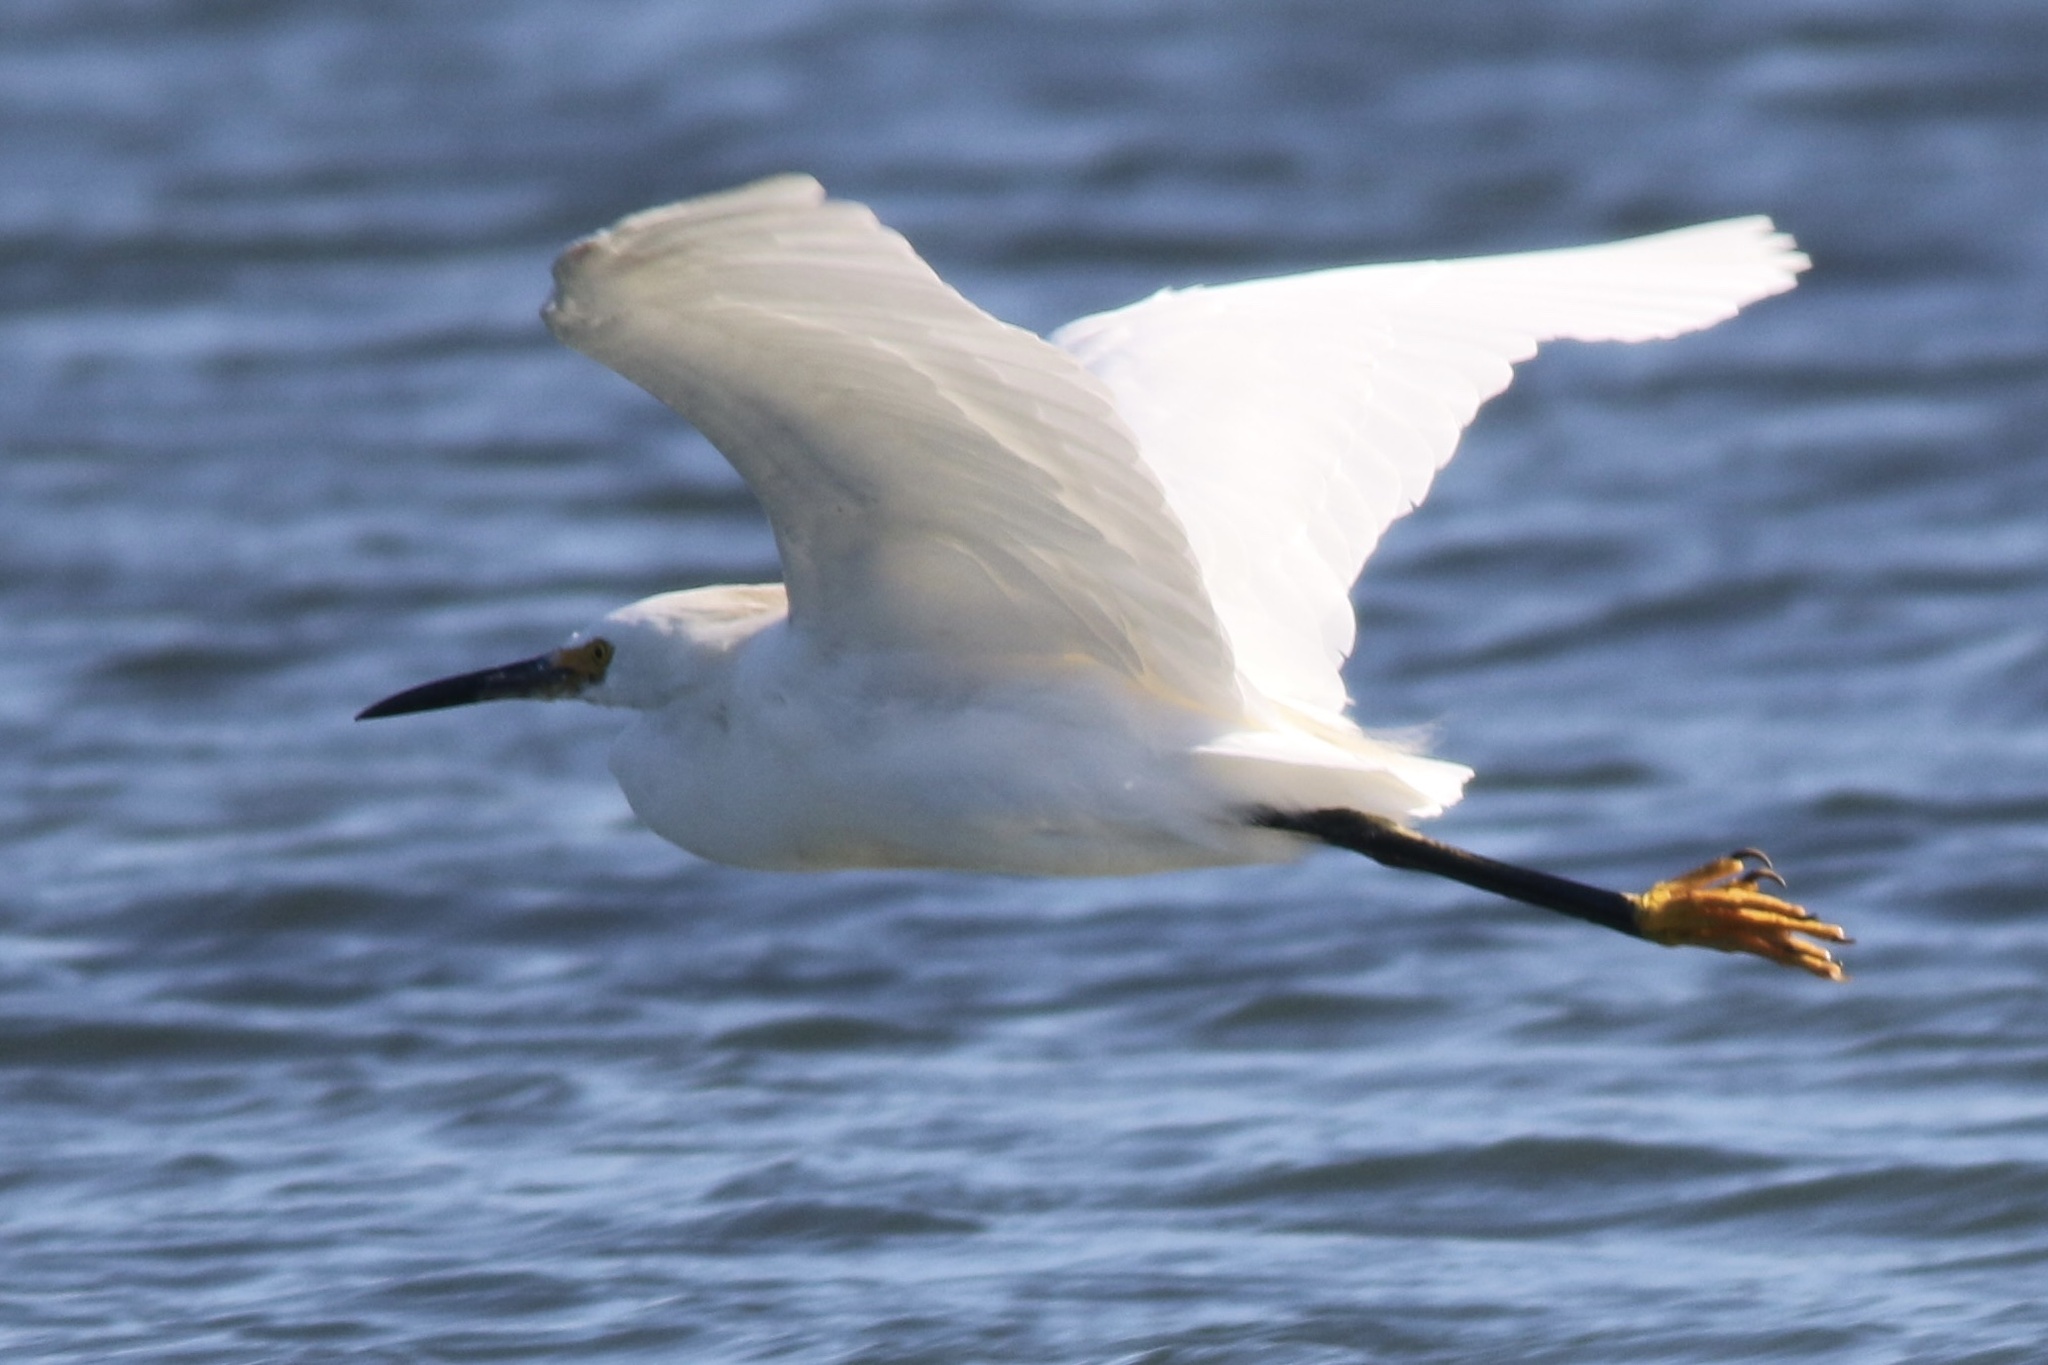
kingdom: Animalia
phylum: Chordata
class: Aves
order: Pelecaniformes
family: Ardeidae
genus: Egretta
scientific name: Egretta thula
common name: Snowy egret
